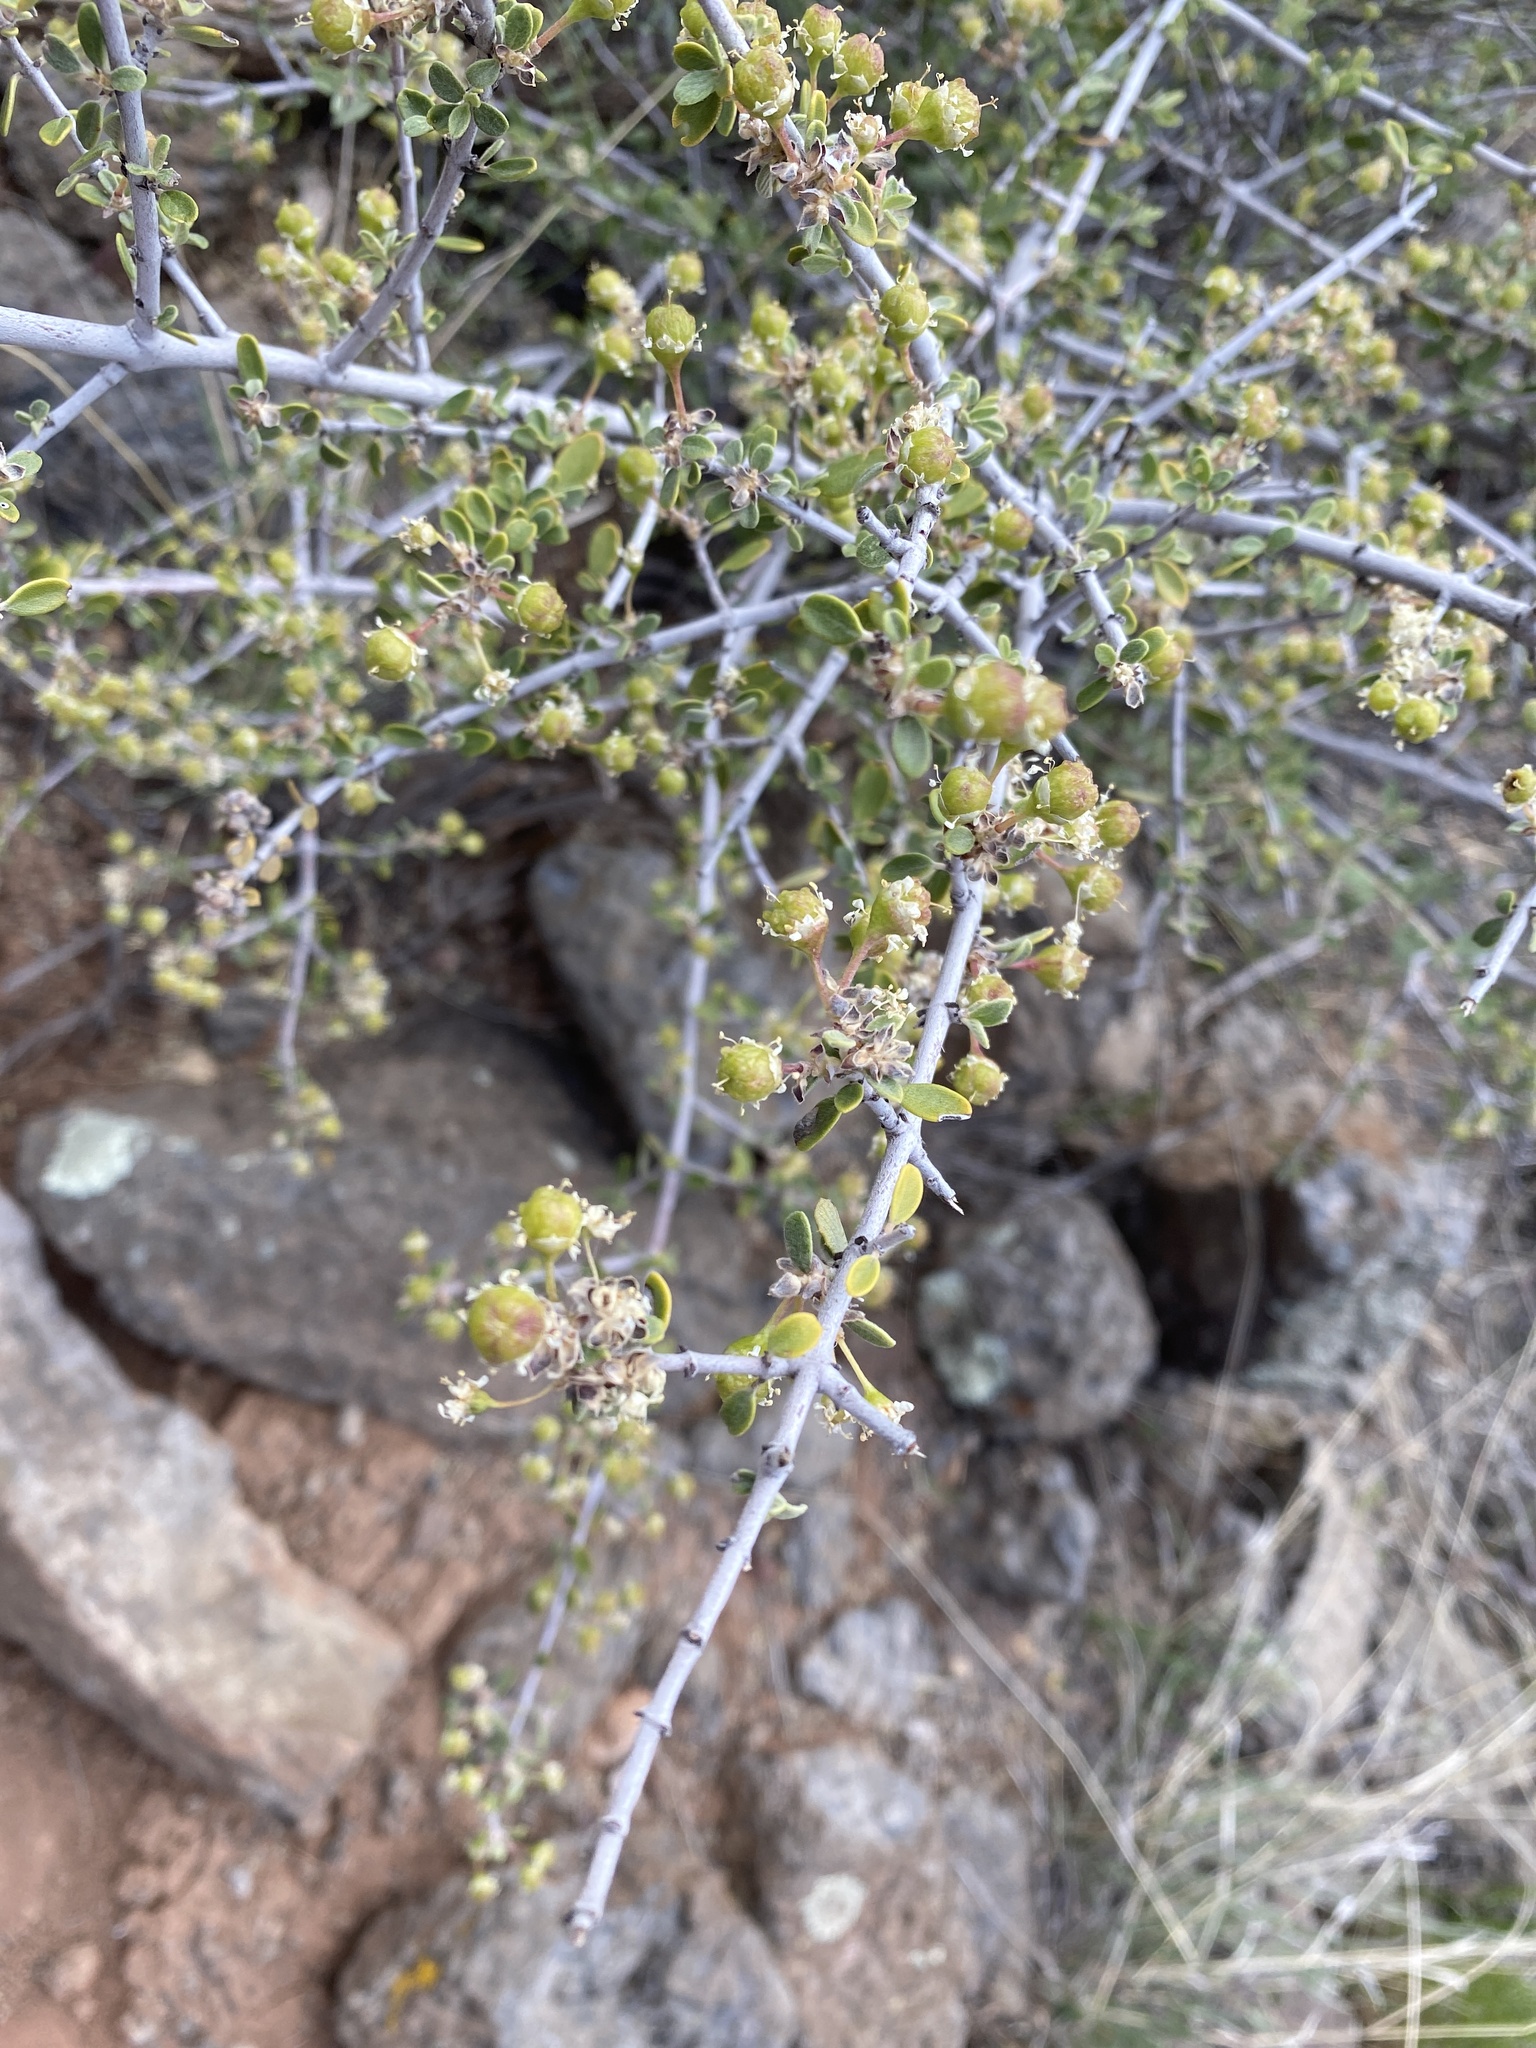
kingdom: Plantae
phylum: Tracheophyta
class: Magnoliopsida
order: Rosales
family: Rhamnaceae
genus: Ceanothus
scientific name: Ceanothus pauciflorus
